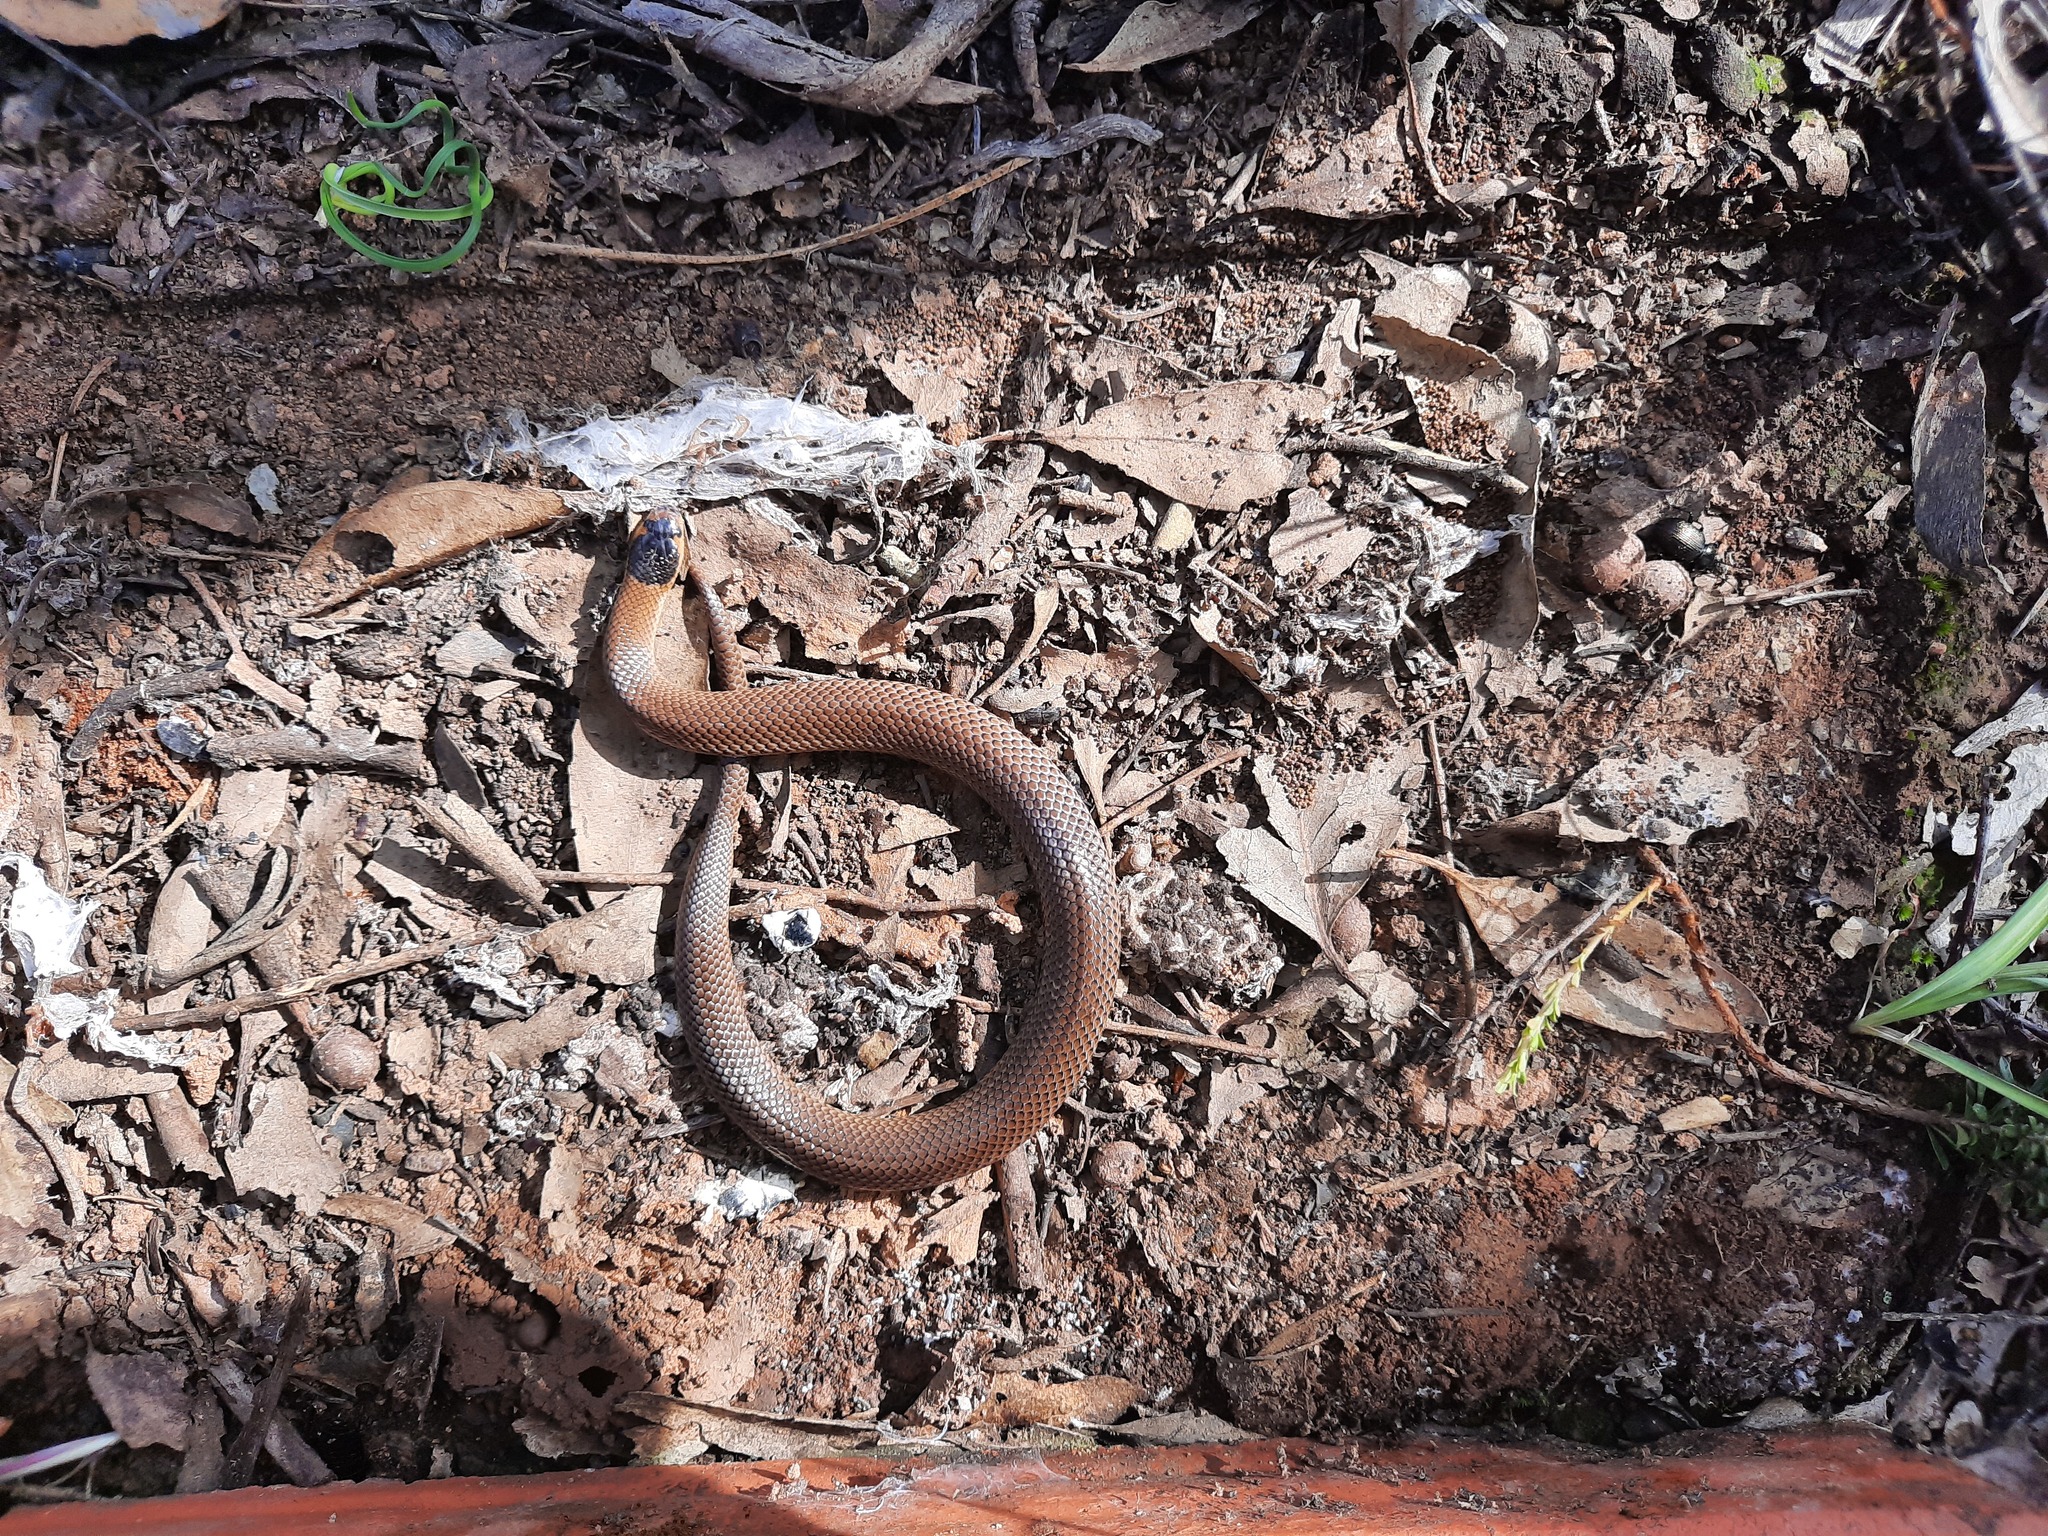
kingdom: Animalia
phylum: Chordata
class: Squamata
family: Elapidae
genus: Suta
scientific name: Suta flagellum
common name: Little whip snake
